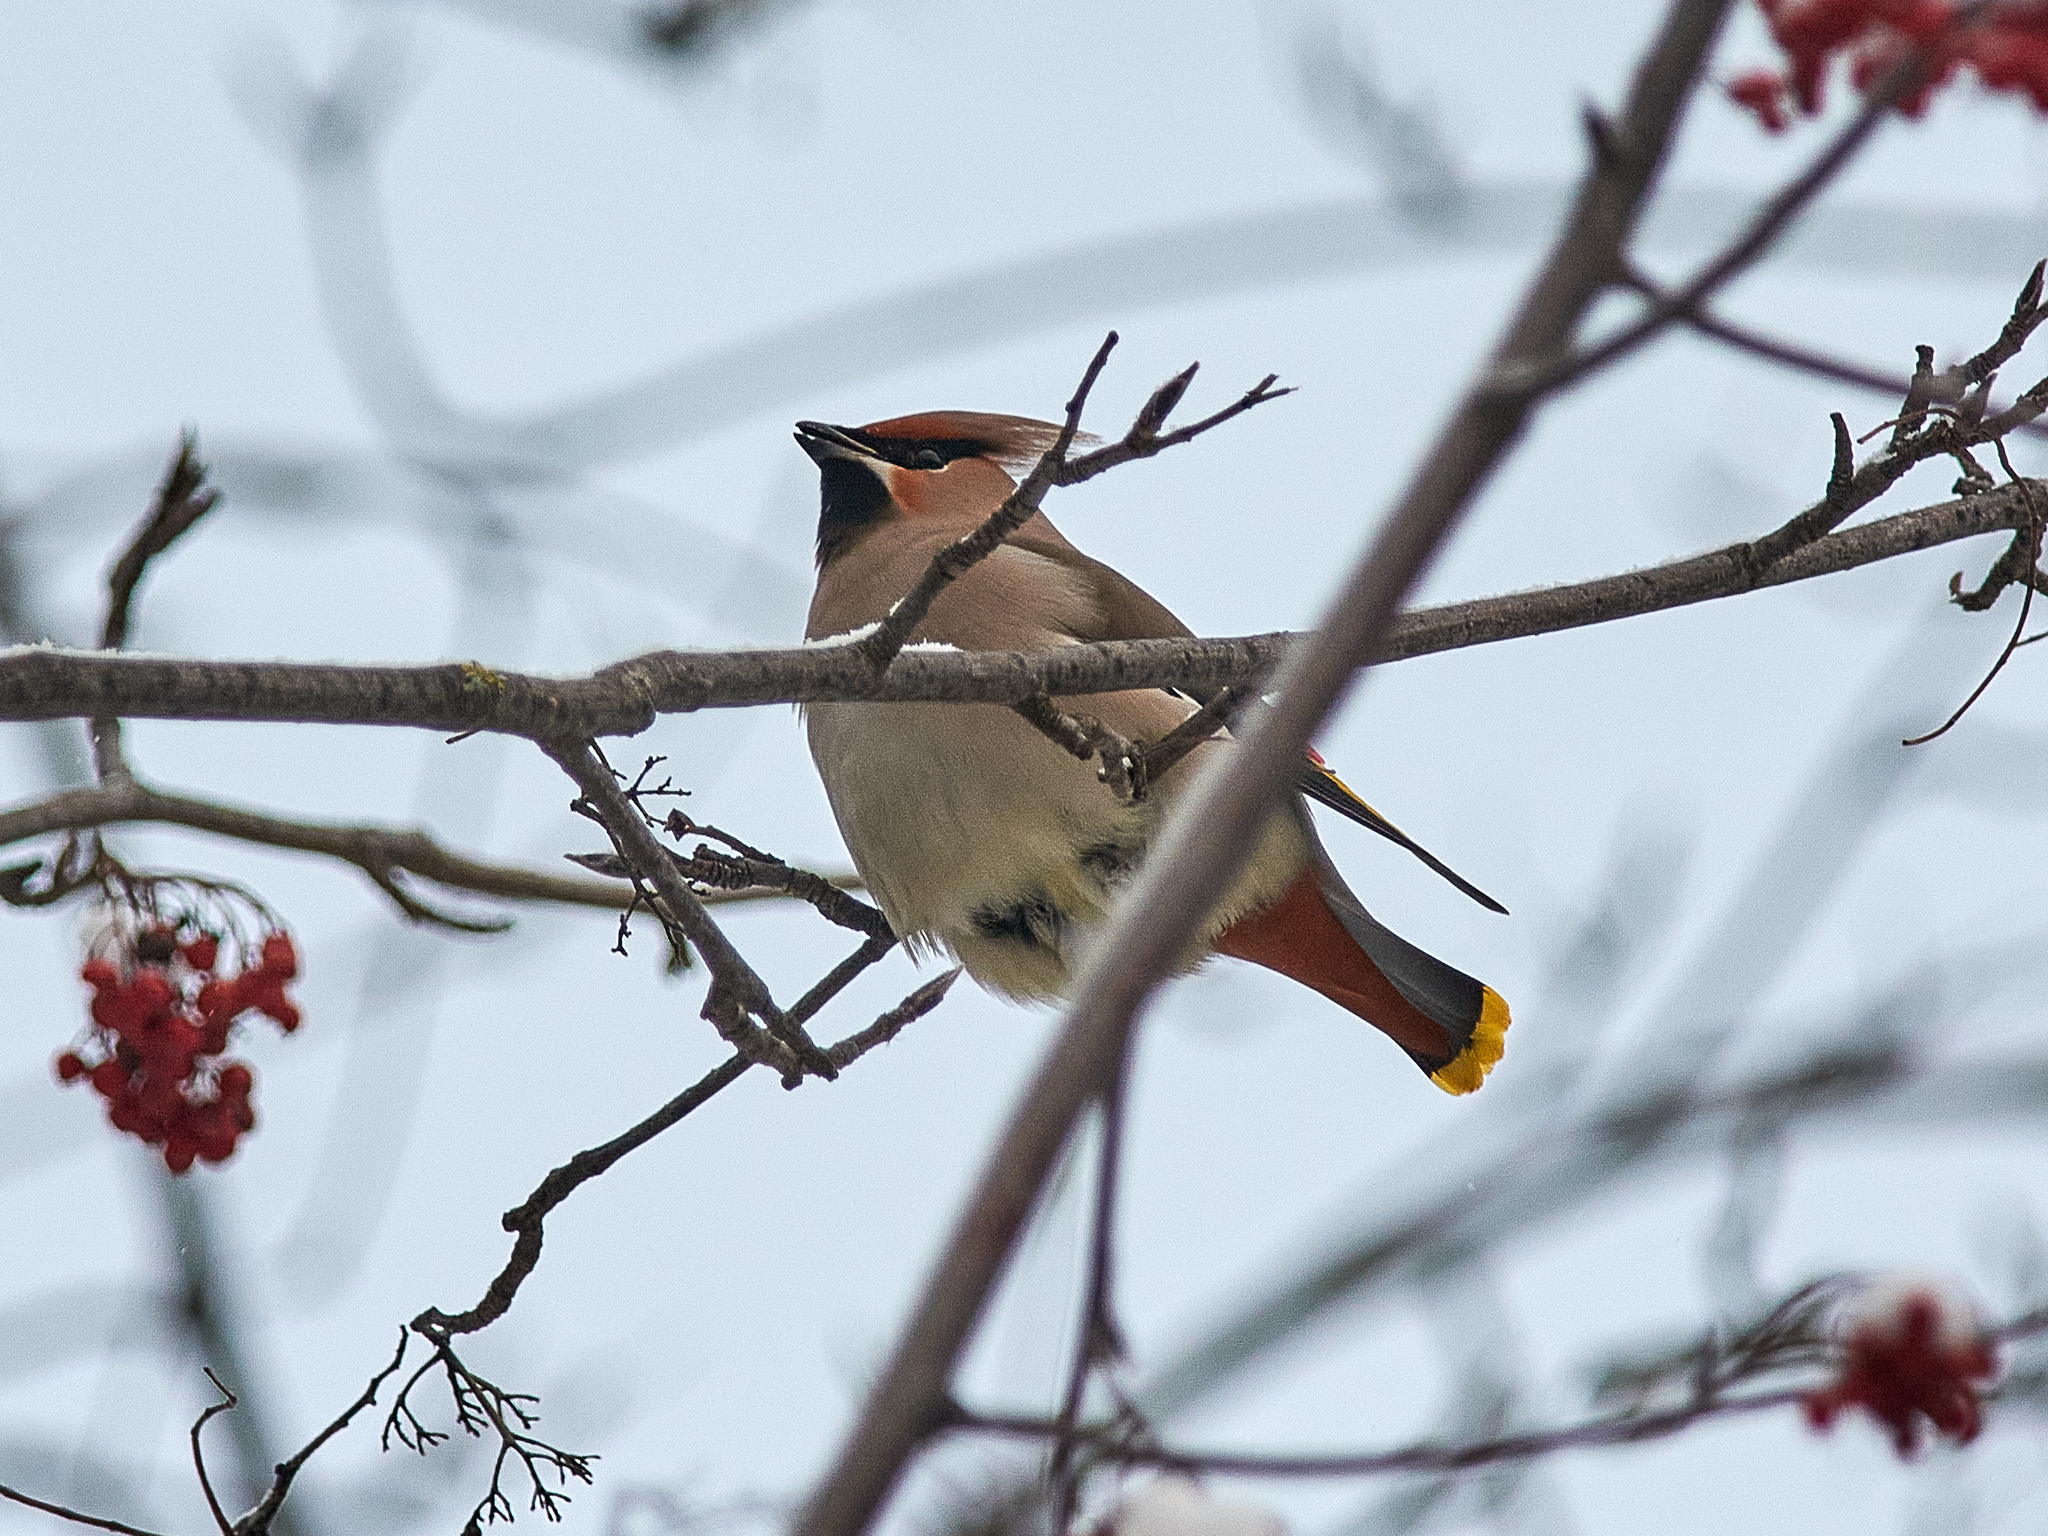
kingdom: Animalia
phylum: Chordata
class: Aves
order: Passeriformes
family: Bombycillidae
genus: Bombycilla
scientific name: Bombycilla garrulus
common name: Bohemian waxwing
